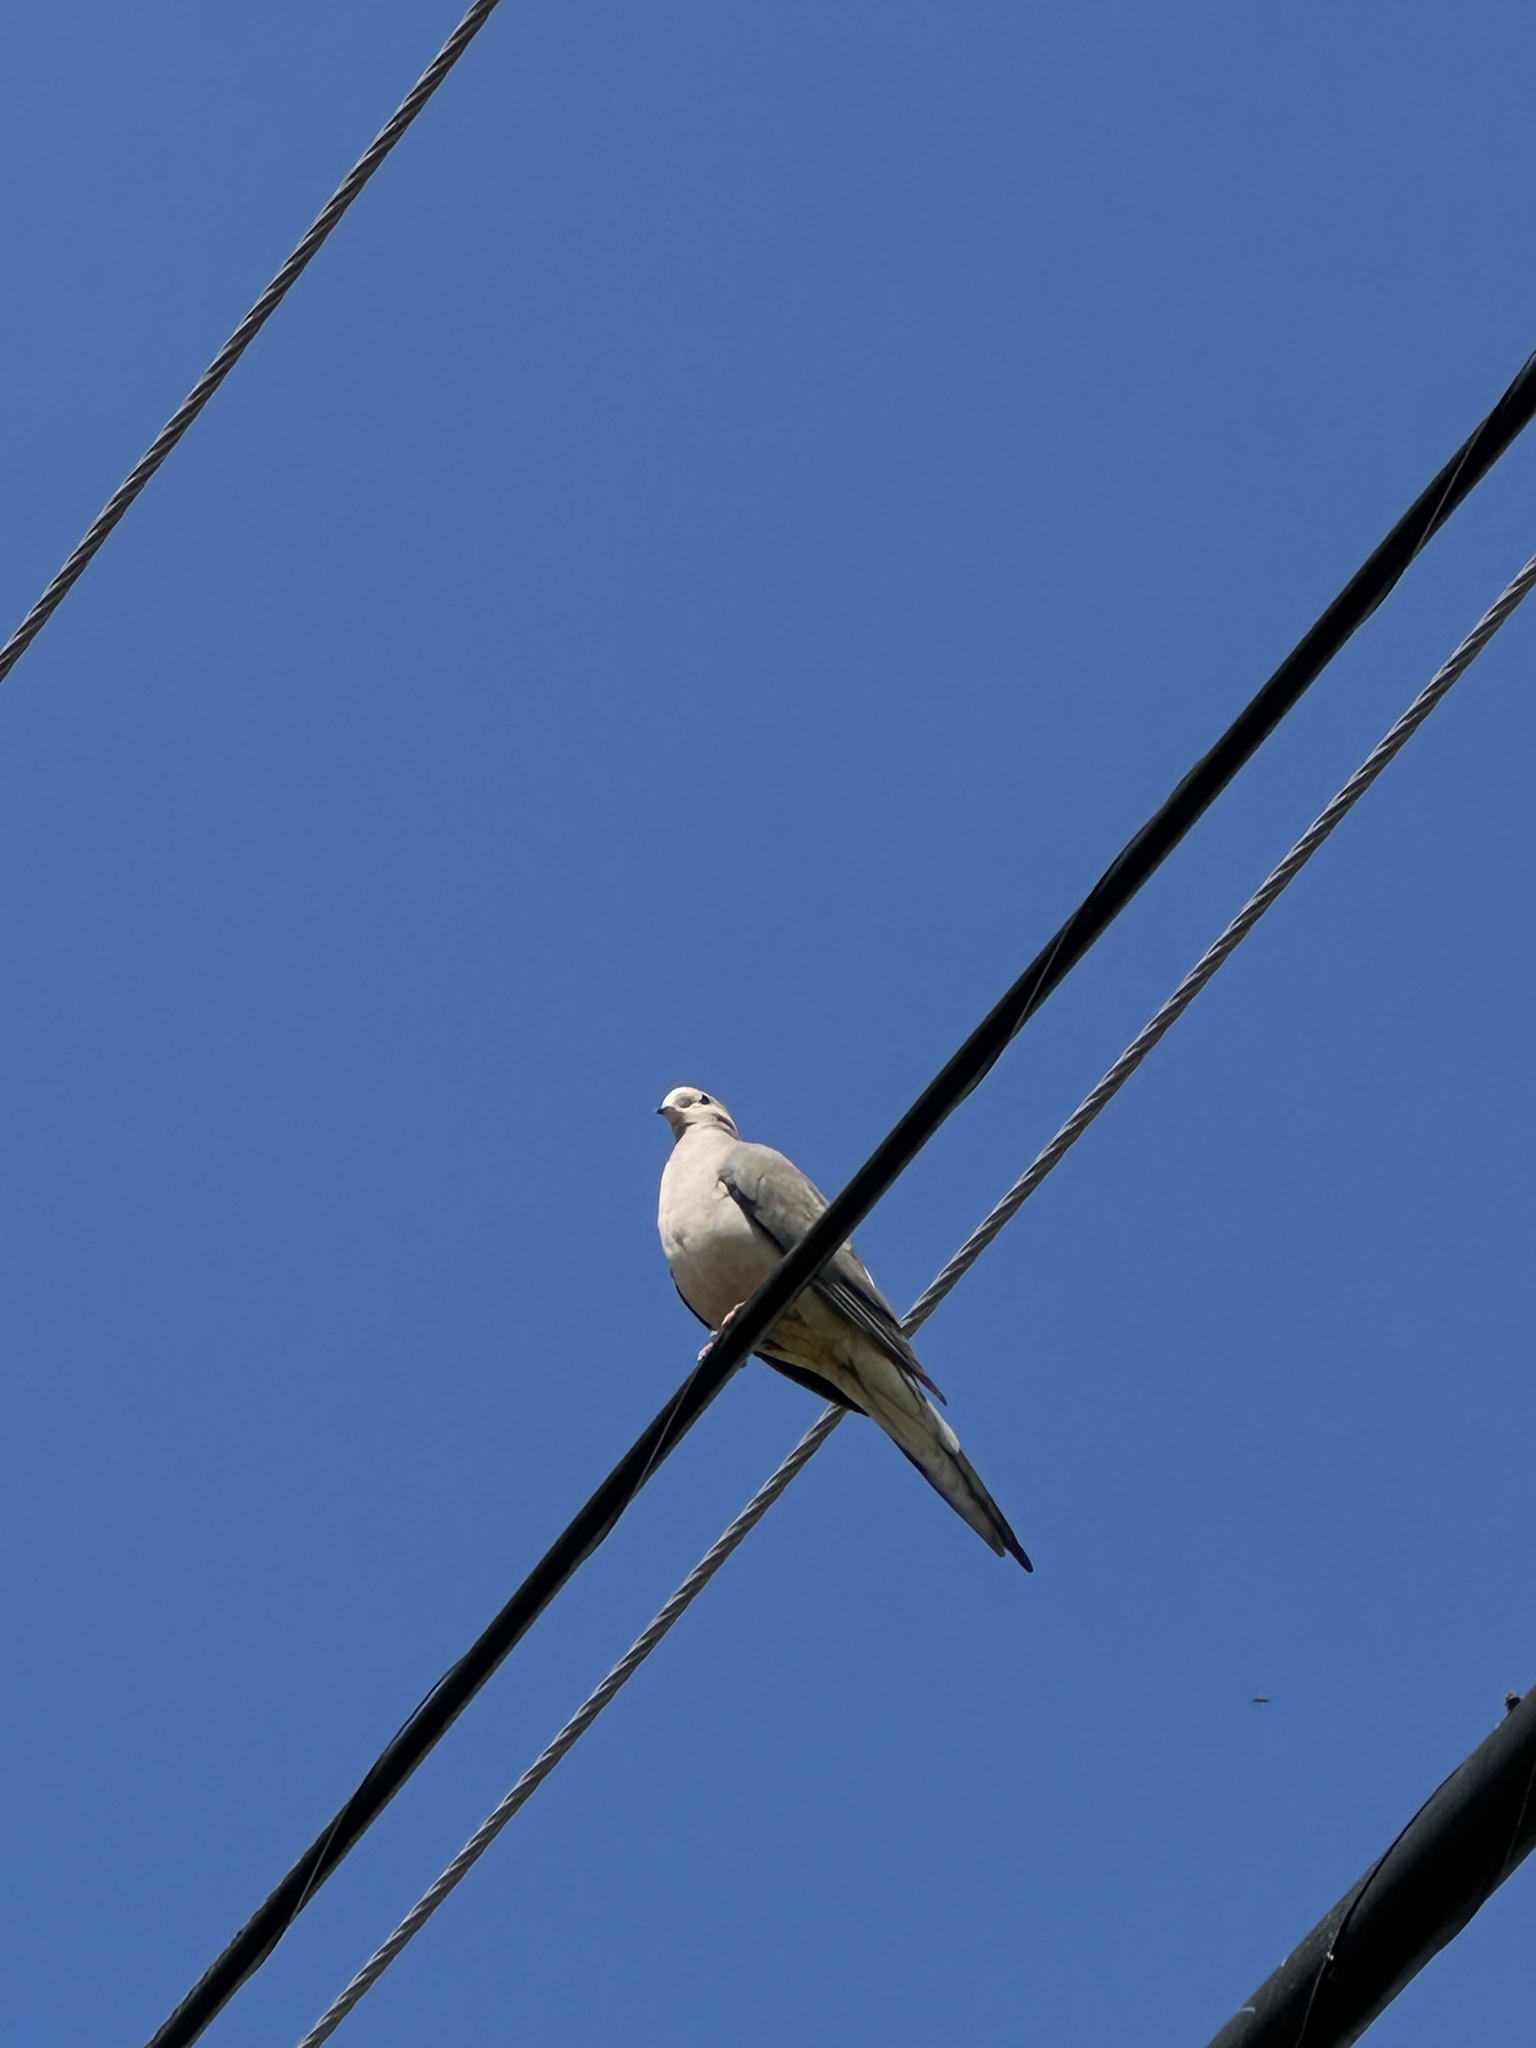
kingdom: Animalia
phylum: Chordata
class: Aves
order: Columbiformes
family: Columbidae
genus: Zenaida
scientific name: Zenaida macroura
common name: Mourning dove
